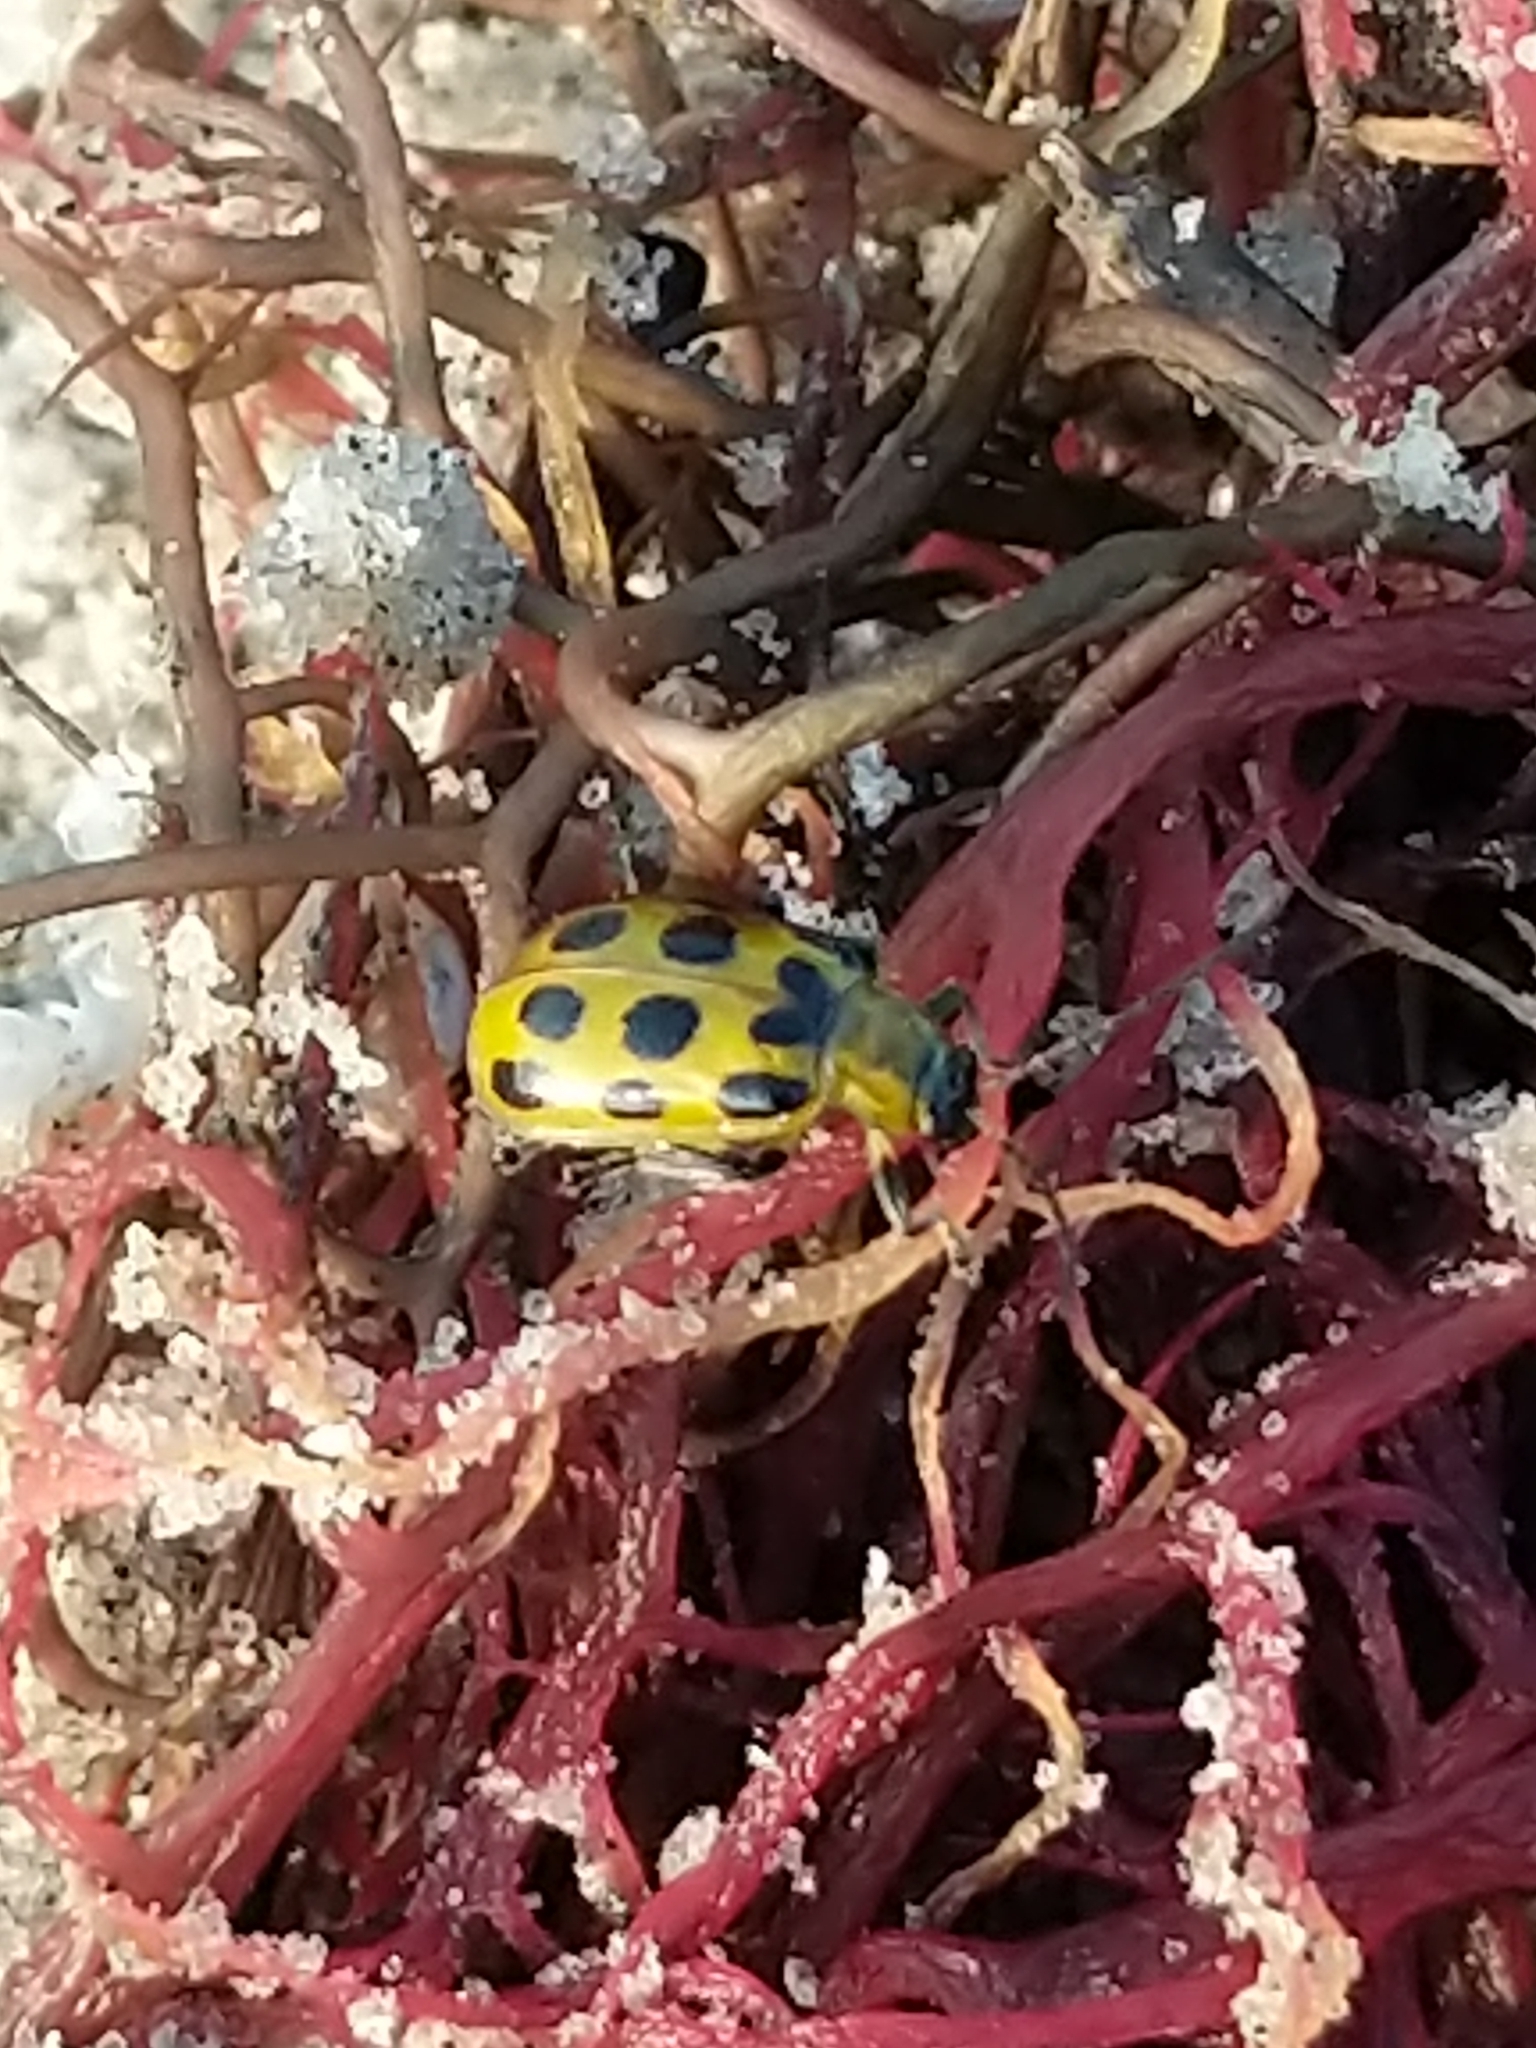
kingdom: Animalia
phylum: Arthropoda
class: Insecta
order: Coleoptera
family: Chrysomelidae
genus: Diabrotica
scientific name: Diabrotica undecimpunctata
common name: Spotted cucumber beetle
